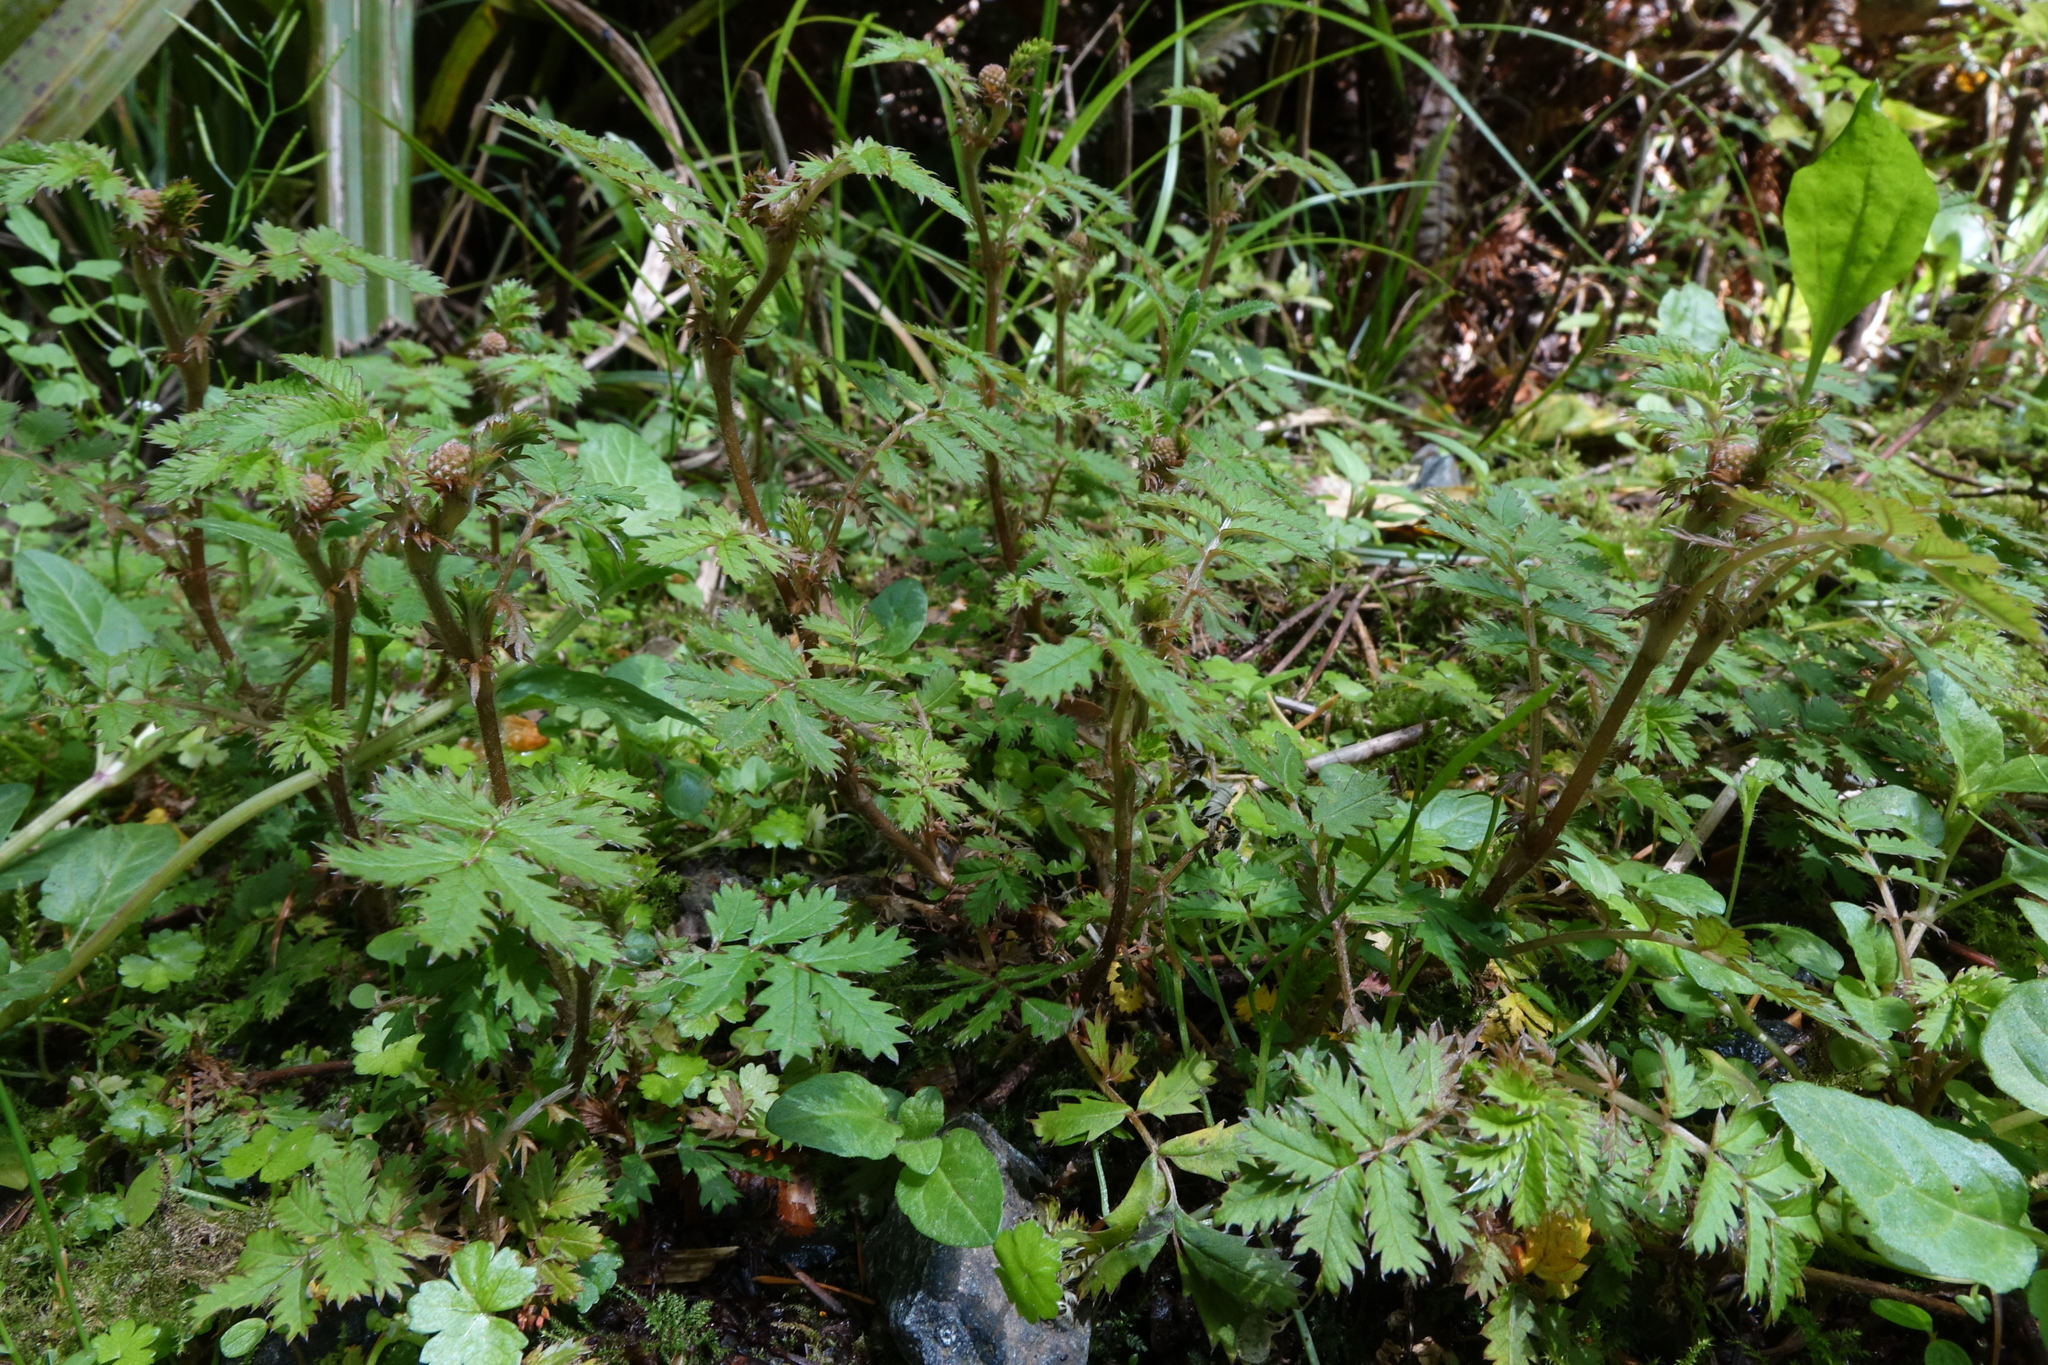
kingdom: Plantae
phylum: Tracheophyta
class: Magnoliopsida
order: Rosales
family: Rosaceae
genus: Acaena
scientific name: Acaena anserinifolia
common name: Bronze pirri-pirri-bur
